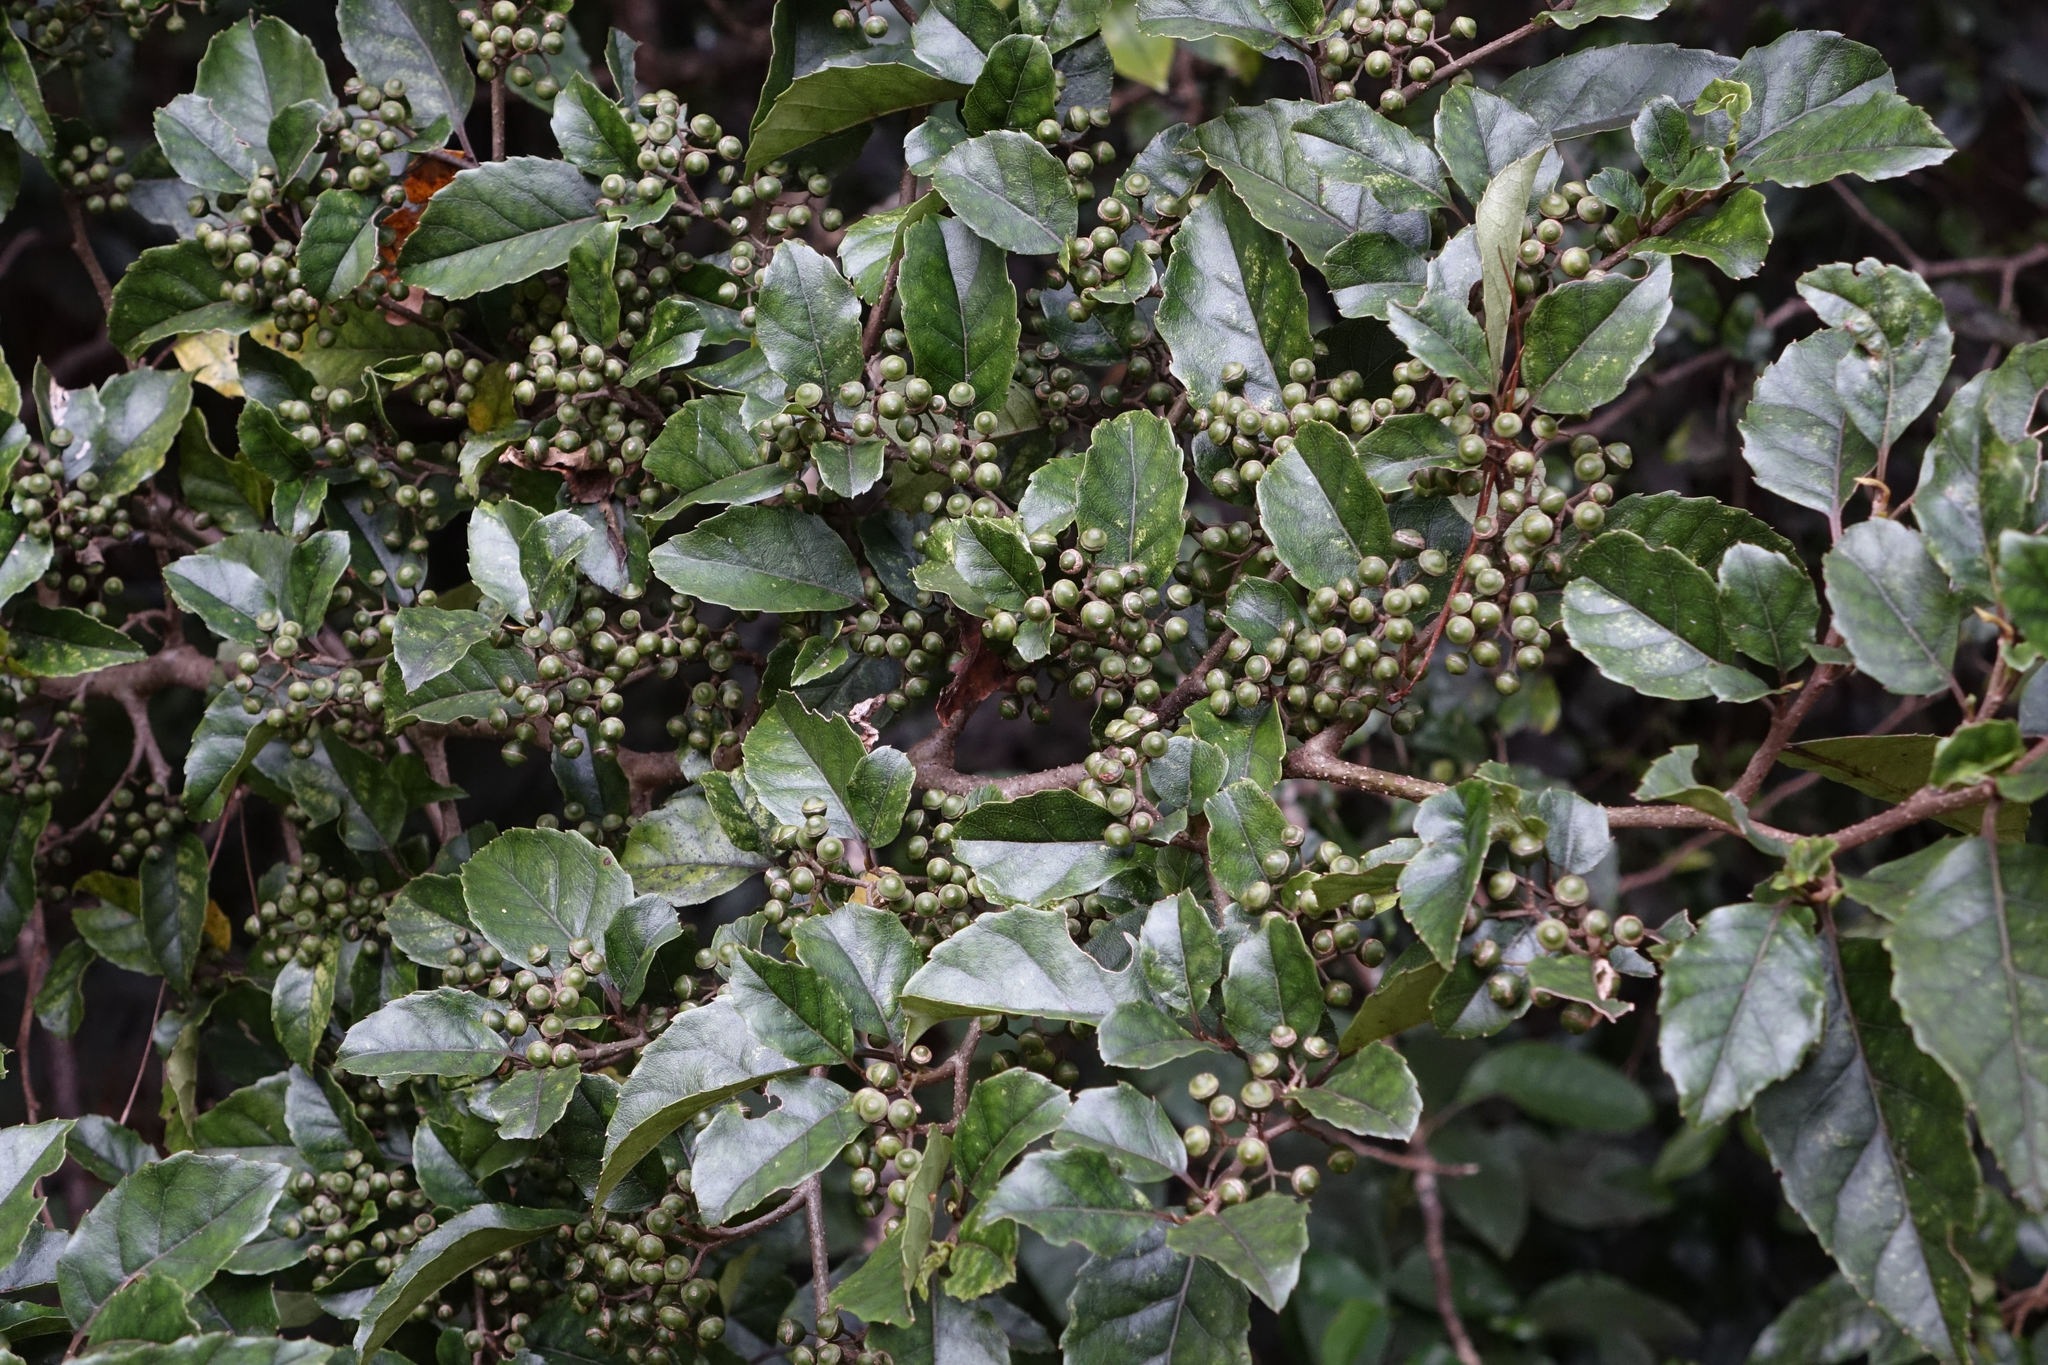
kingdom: Plantae
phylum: Tracheophyta
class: Magnoliopsida
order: Asterales
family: Rousseaceae
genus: Carpodetus
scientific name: Carpodetus serratus
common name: White mapau
